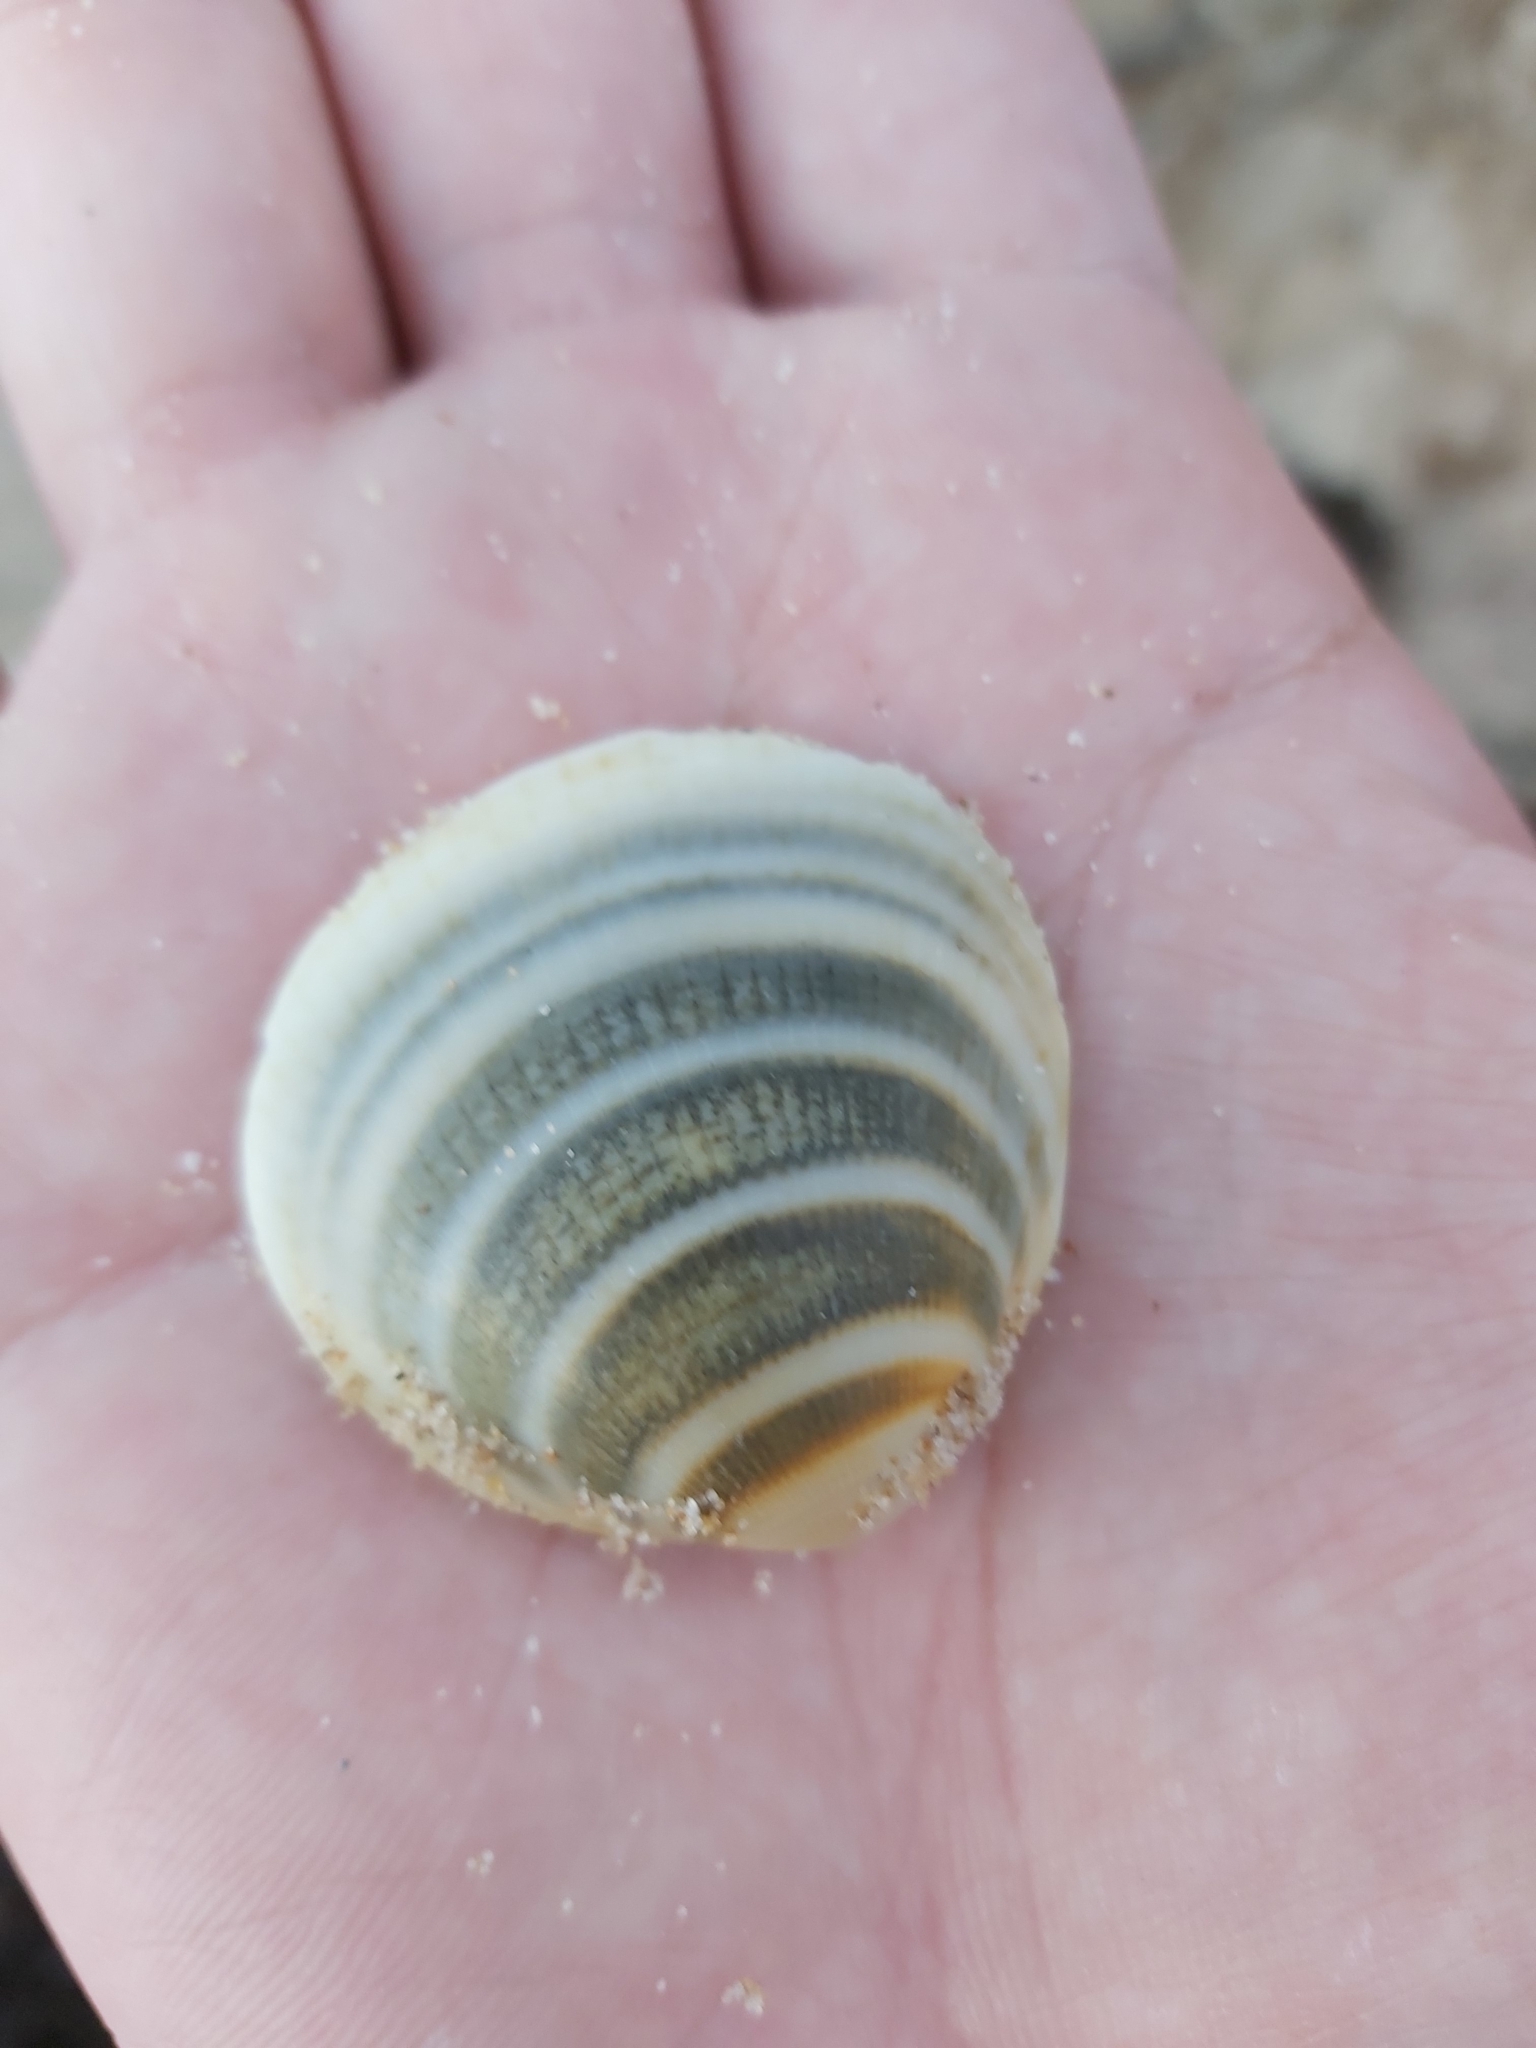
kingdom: Animalia
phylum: Mollusca
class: Bivalvia
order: Arcida
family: Glycymerididae
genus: Glycymeris
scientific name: Glycymeris grayana
